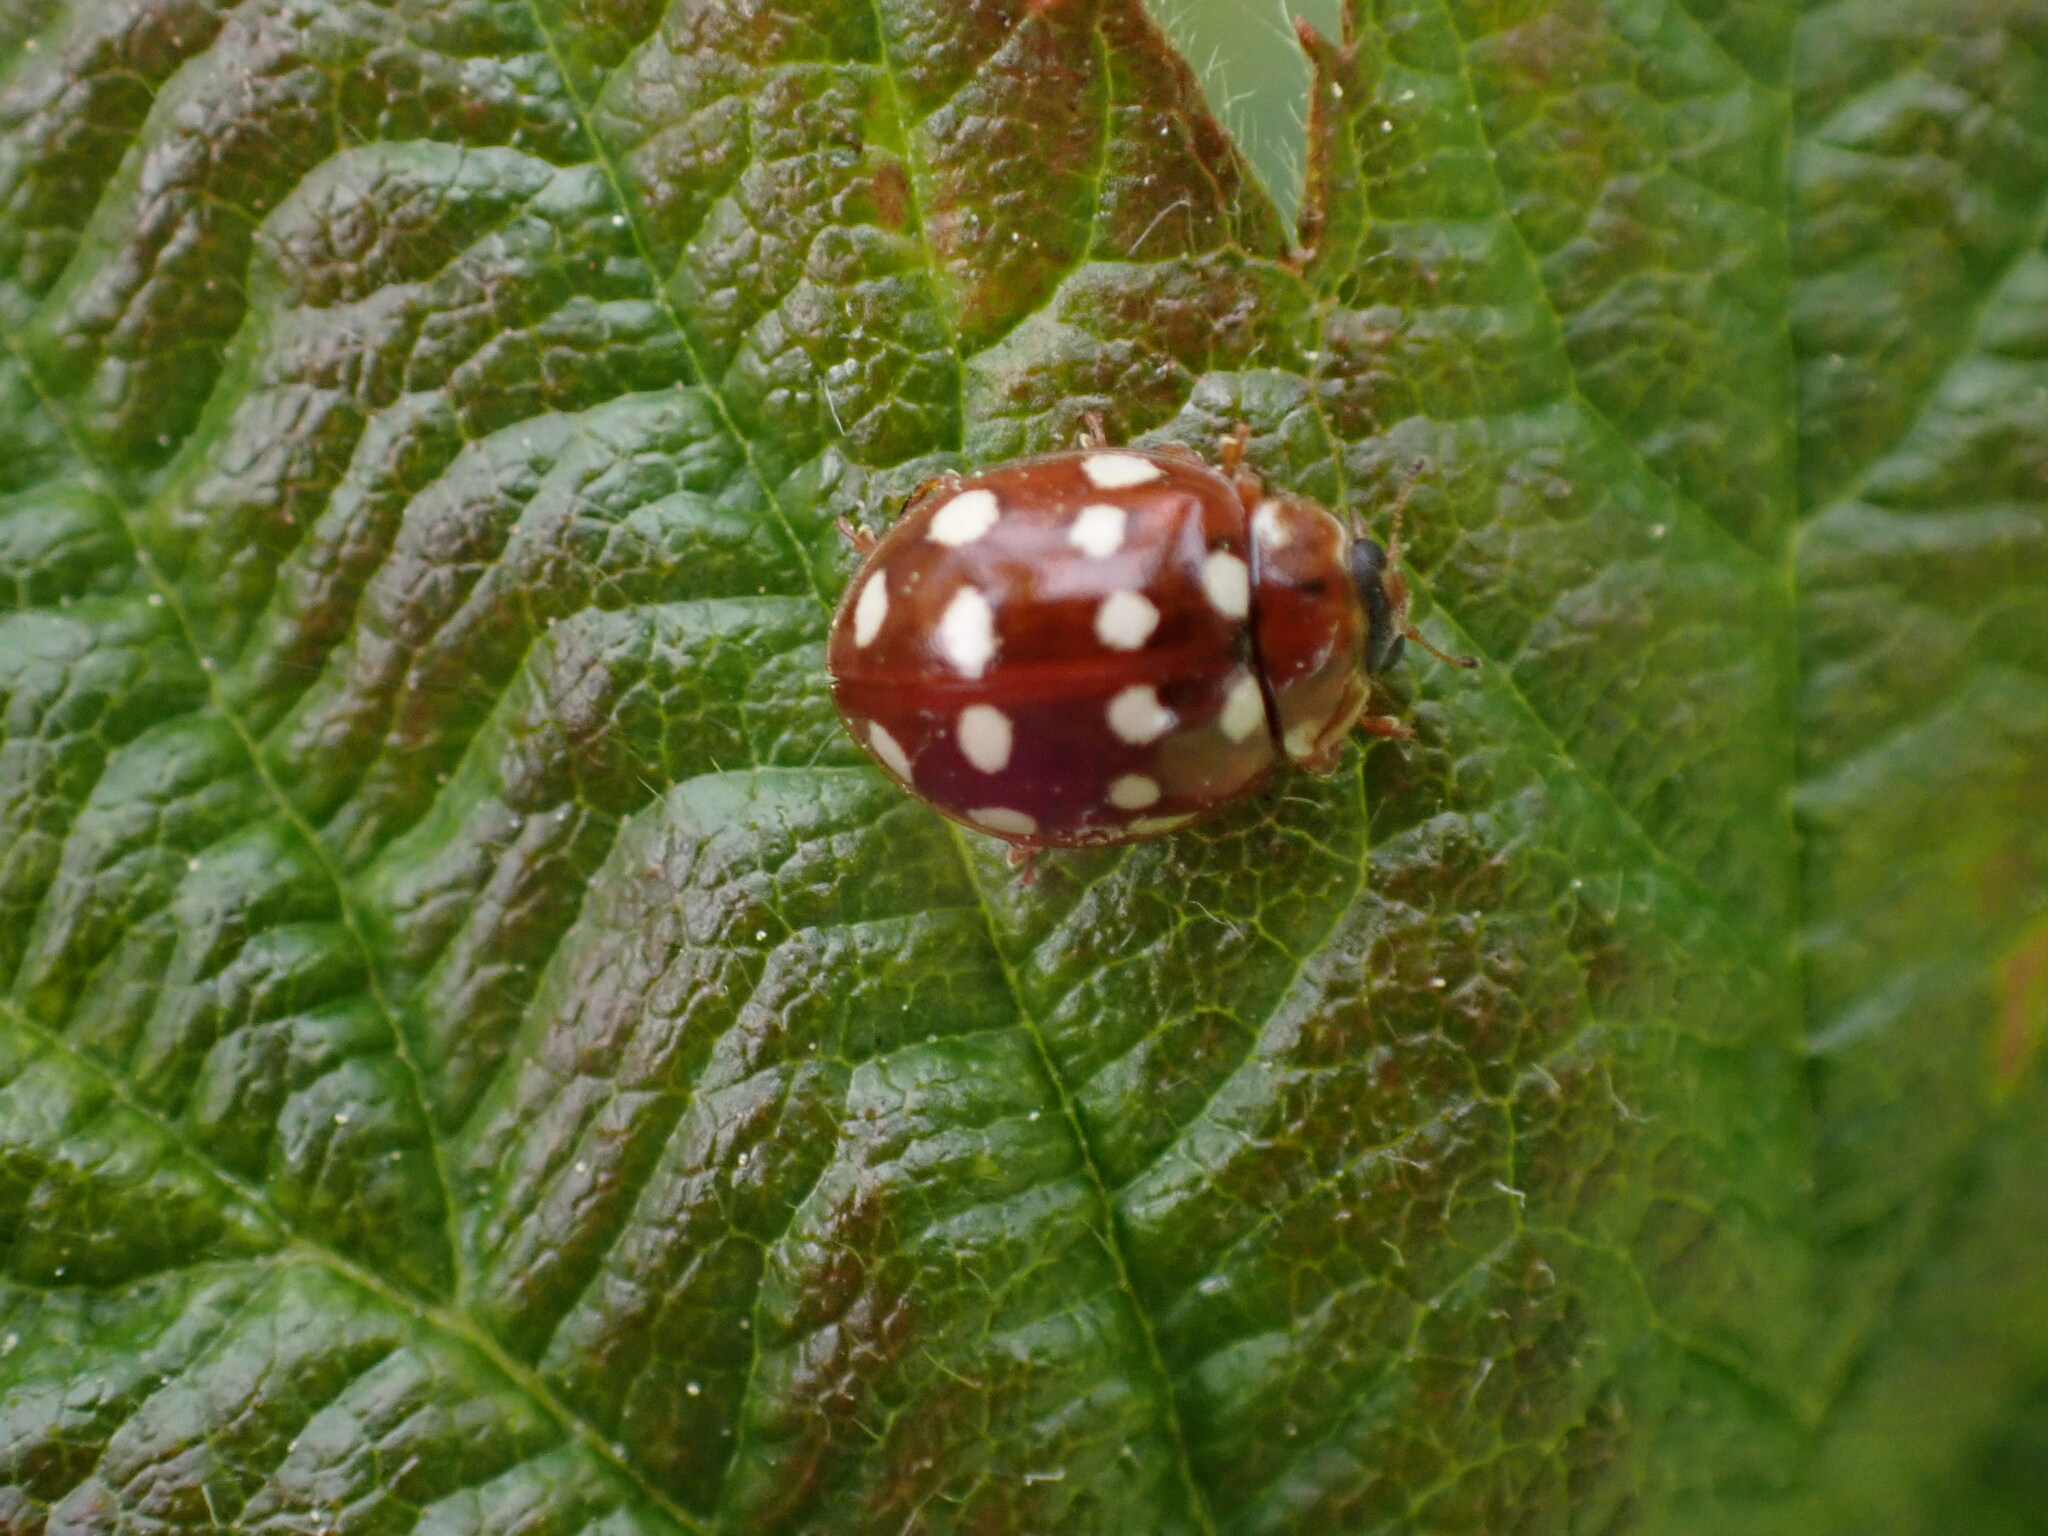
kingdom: Animalia
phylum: Arthropoda
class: Insecta
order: Coleoptera
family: Coccinellidae
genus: Calvia
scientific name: Calvia quatuordecimguttata
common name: Cream-spot ladybird
